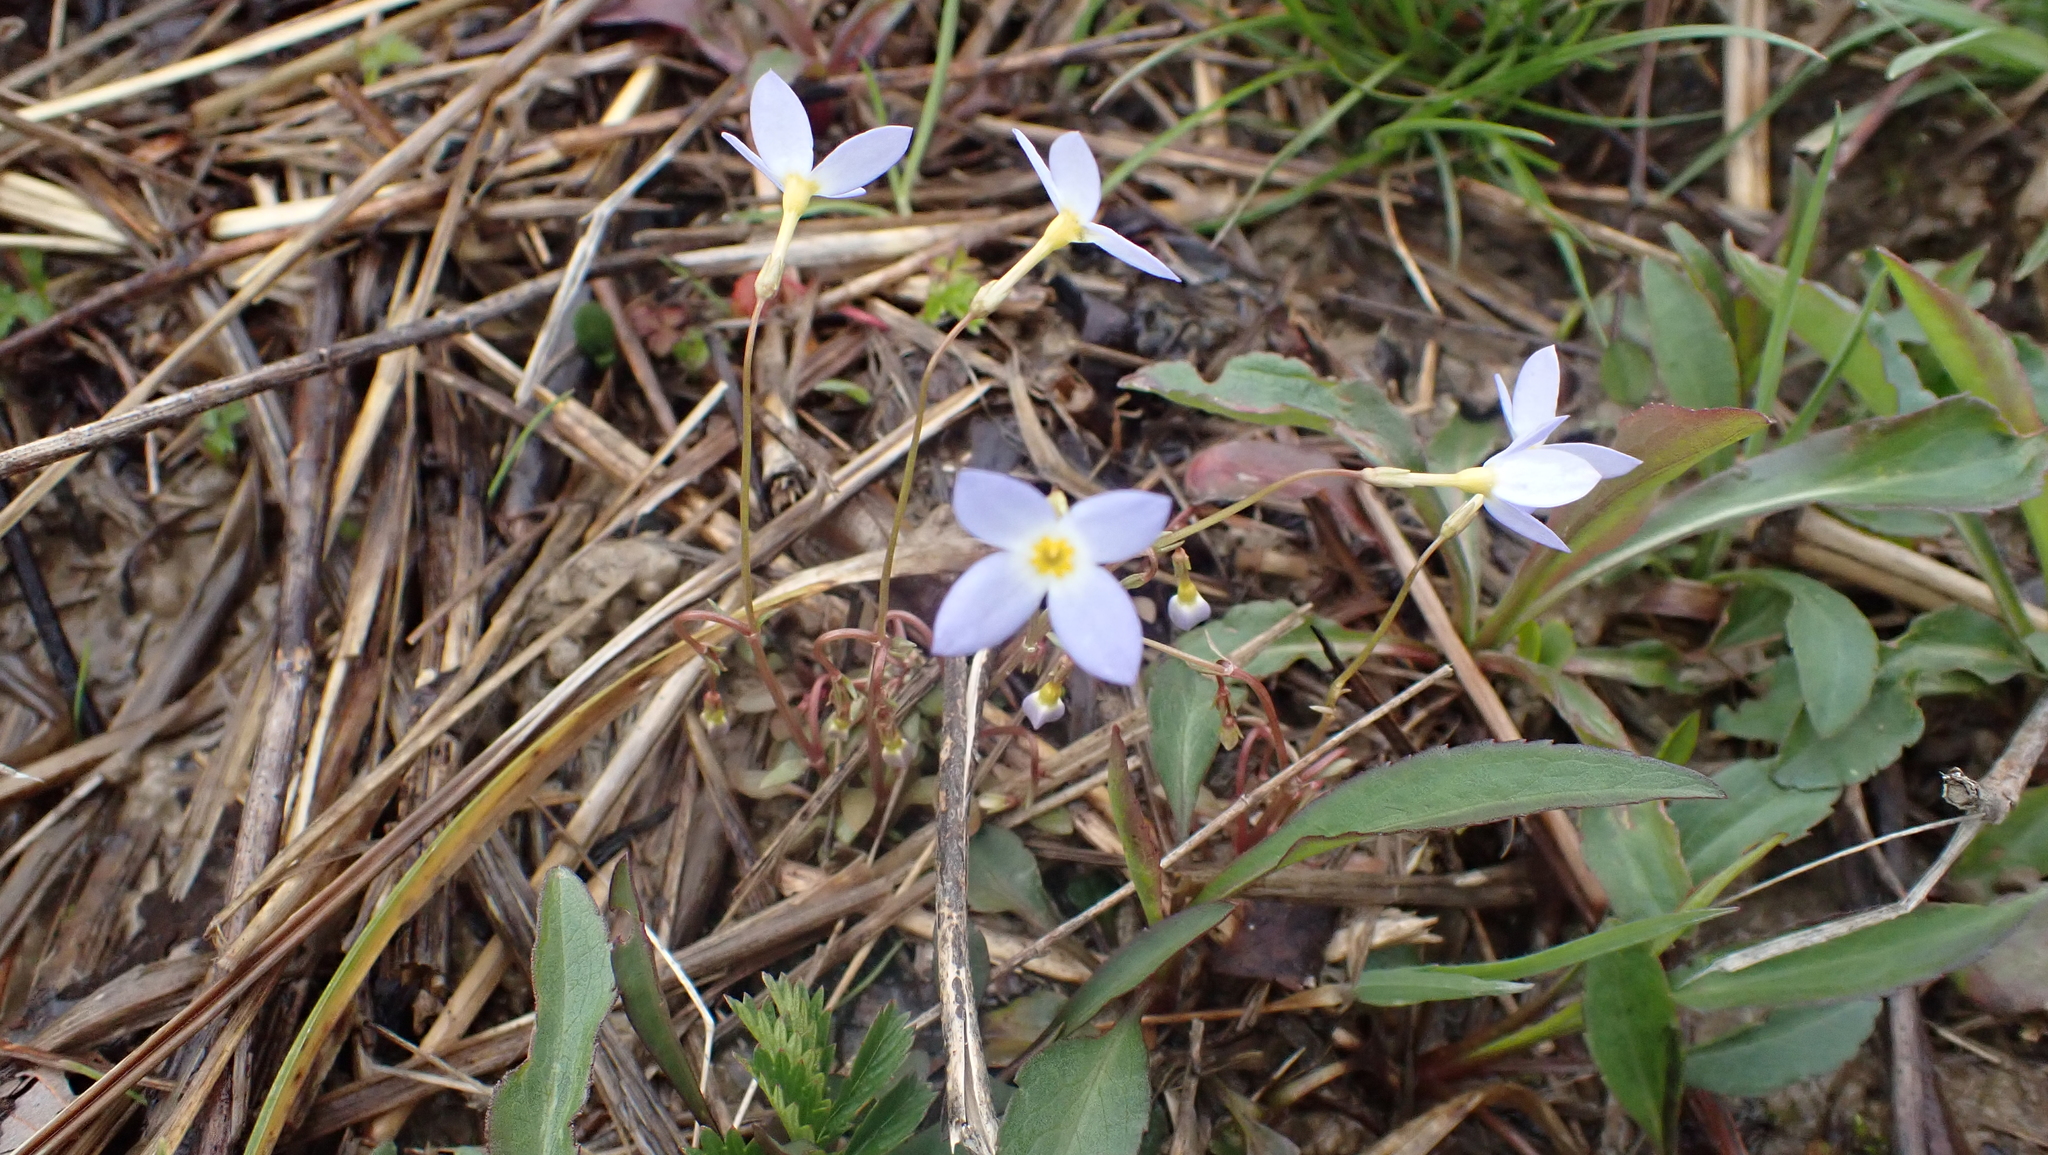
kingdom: Plantae
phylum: Tracheophyta
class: Magnoliopsida
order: Gentianales
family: Rubiaceae
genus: Houstonia
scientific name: Houstonia caerulea
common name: Bluets
